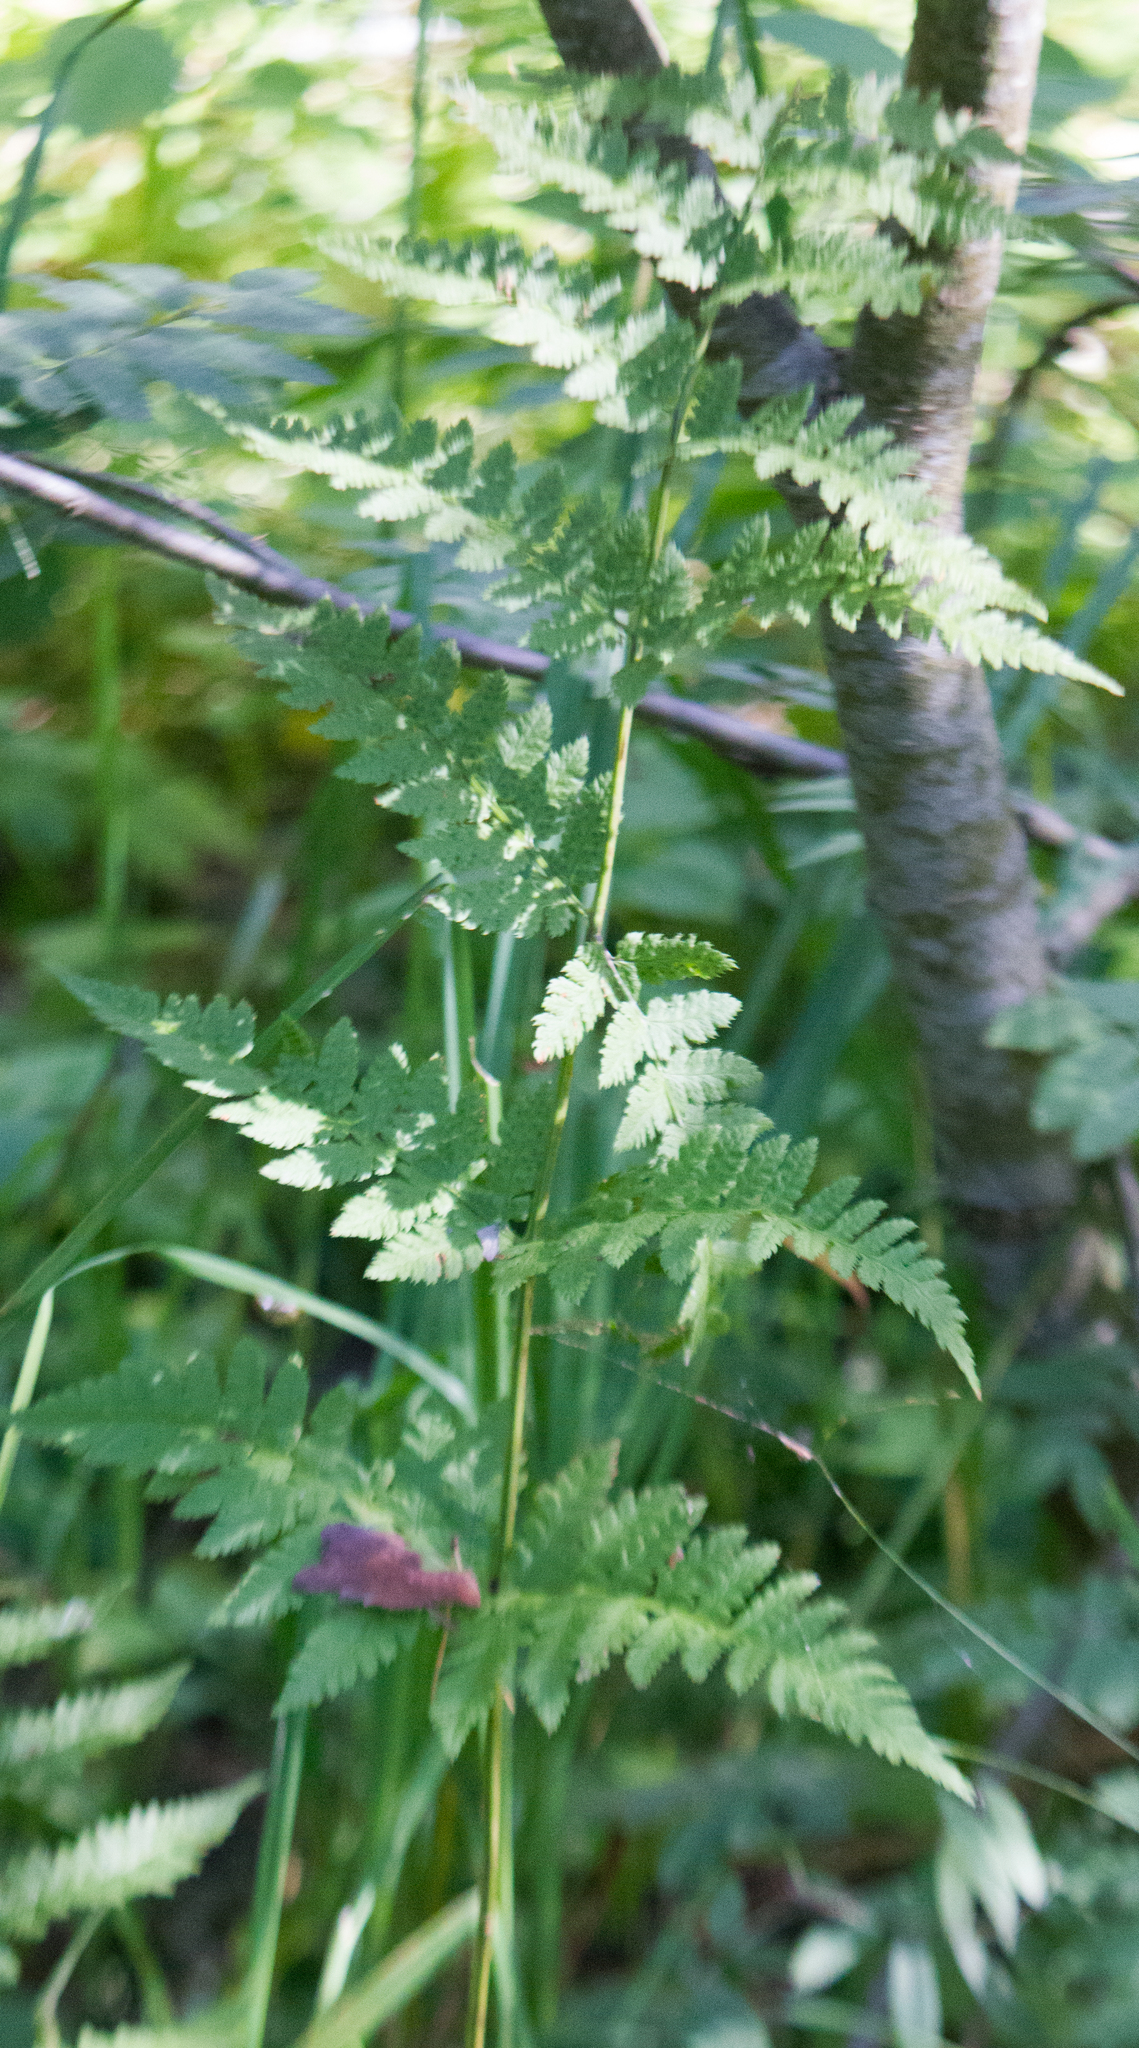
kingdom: Plantae
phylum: Tracheophyta
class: Polypodiopsida
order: Polypodiales
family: Dryopteridaceae
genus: Dryopteris
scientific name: Dryopteris carthusiana
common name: Narrow buckler-fern
